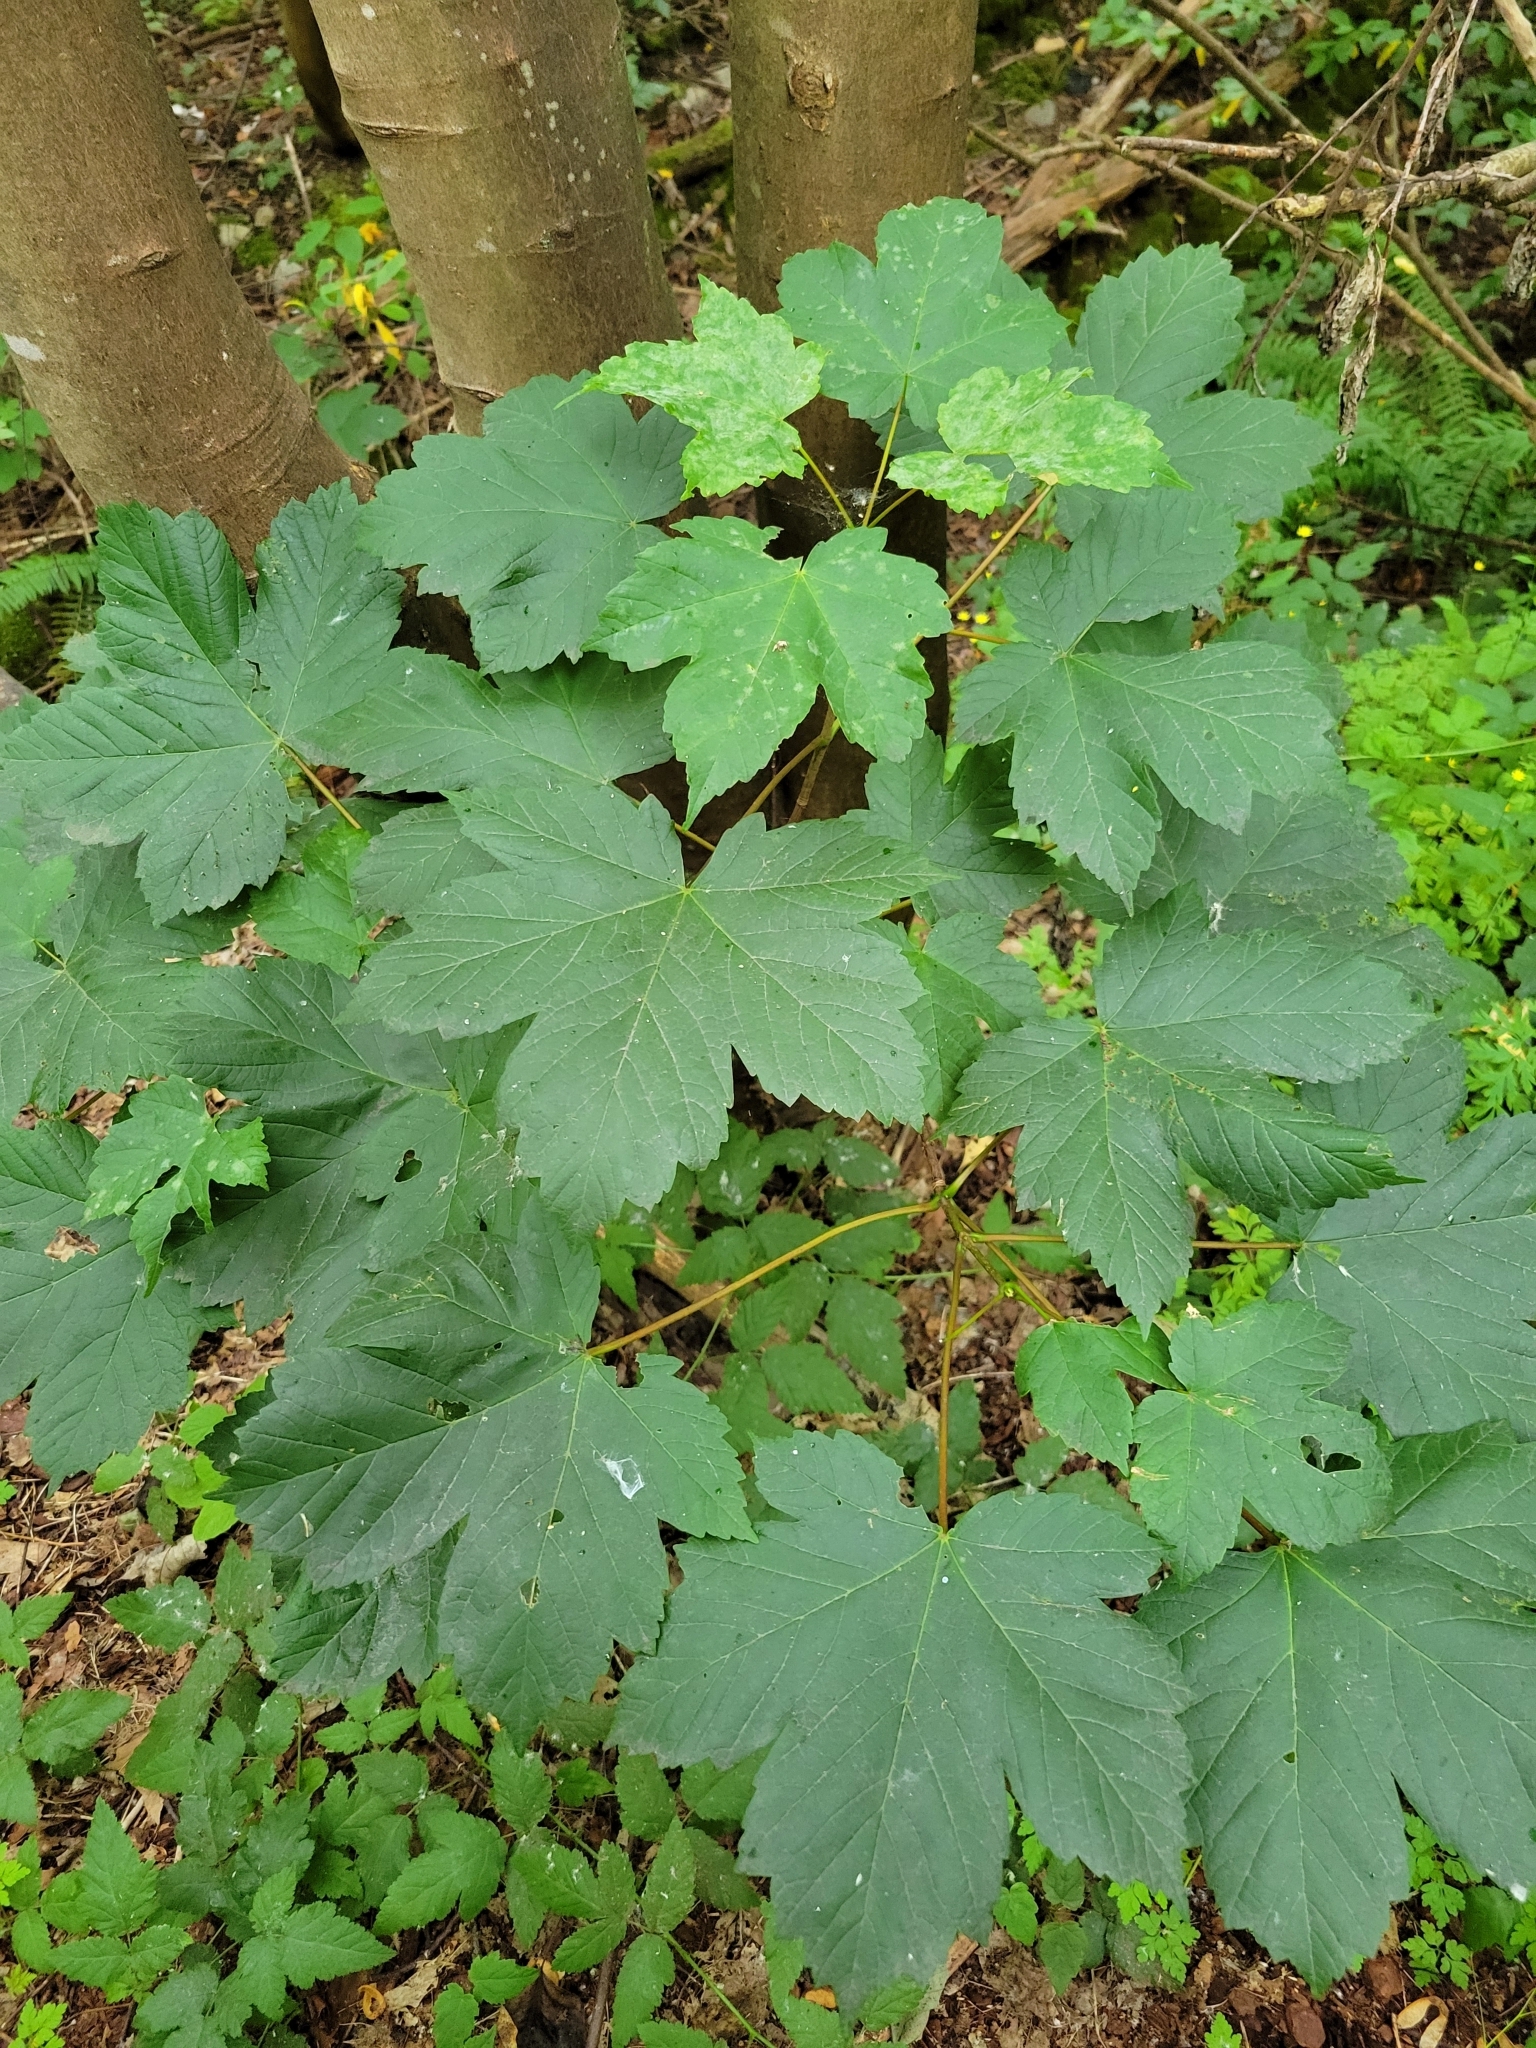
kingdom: Plantae
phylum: Tracheophyta
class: Magnoliopsida
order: Sapindales
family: Sapindaceae
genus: Acer
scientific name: Acer pseudoplatanus
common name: Sycamore
